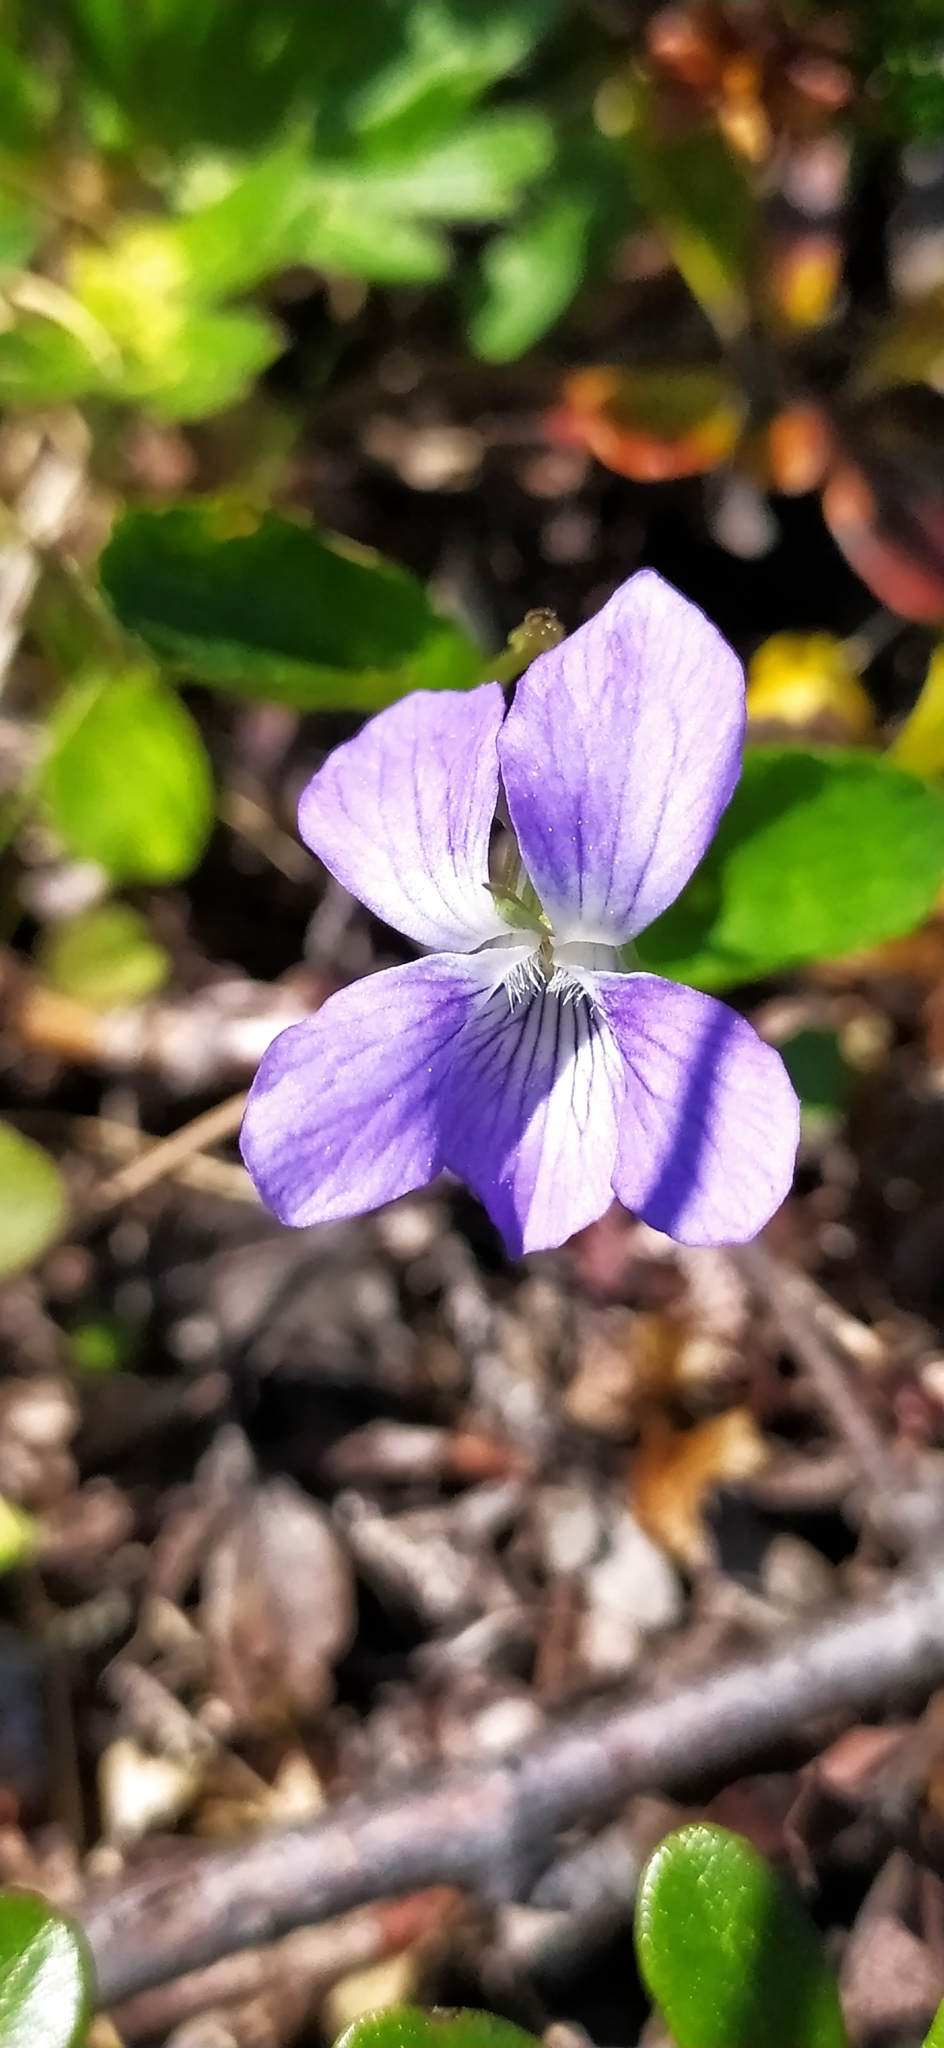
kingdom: Plantae
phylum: Tracheophyta
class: Magnoliopsida
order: Malpighiales
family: Violaceae
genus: Viola
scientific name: Viola canina
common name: Heath dog-violet
